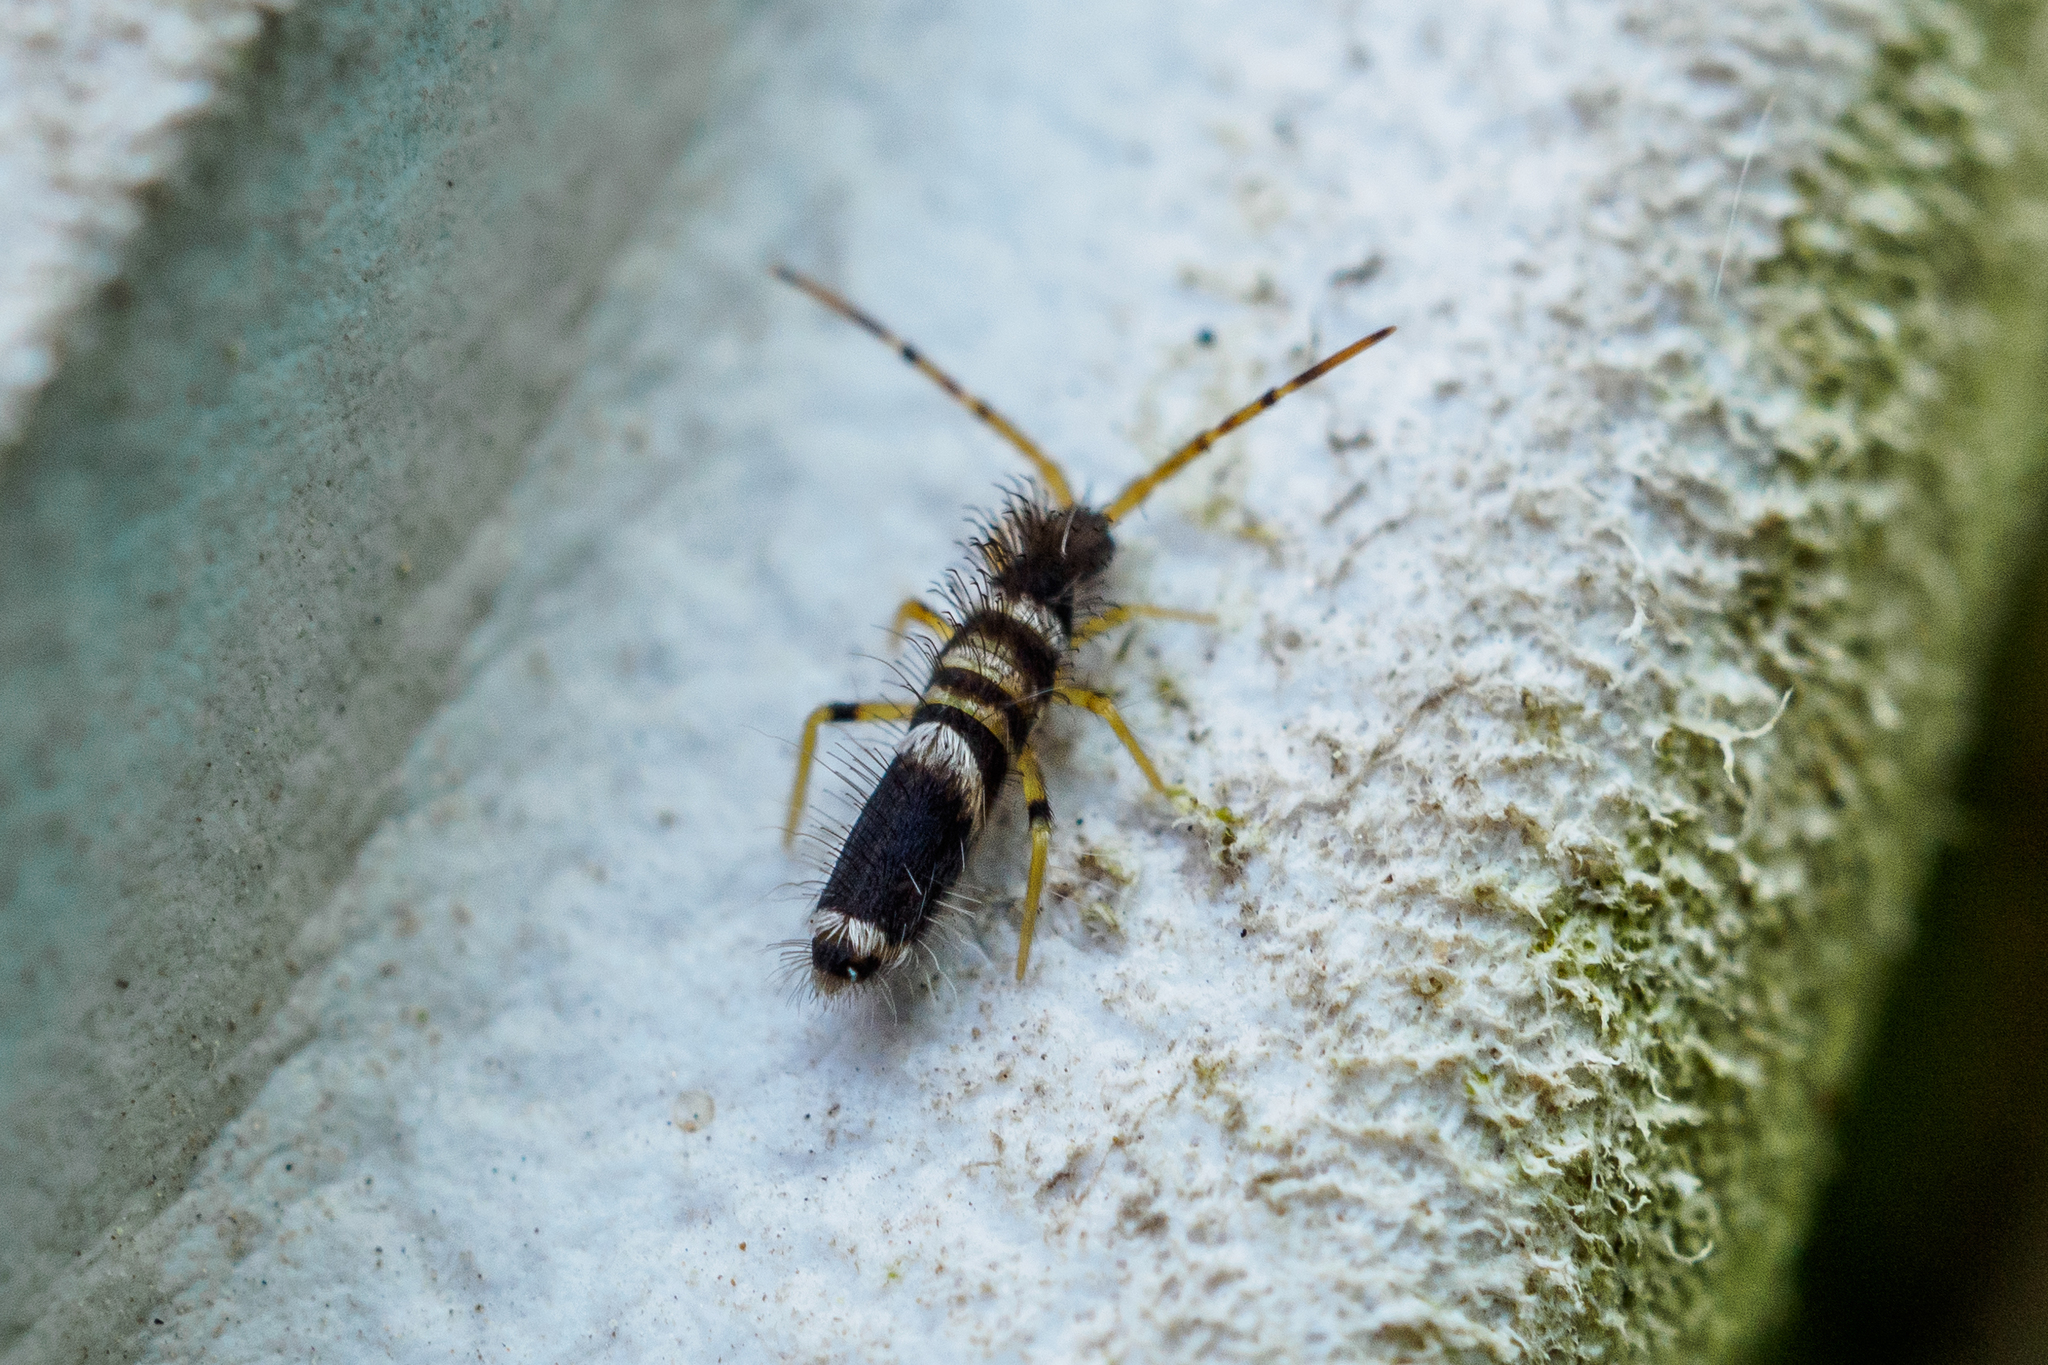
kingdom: Animalia
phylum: Arthropoda
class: Collembola
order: Entomobryomorpha
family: Entomobryidae
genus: Entomobrya
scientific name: Entomobrya superba
